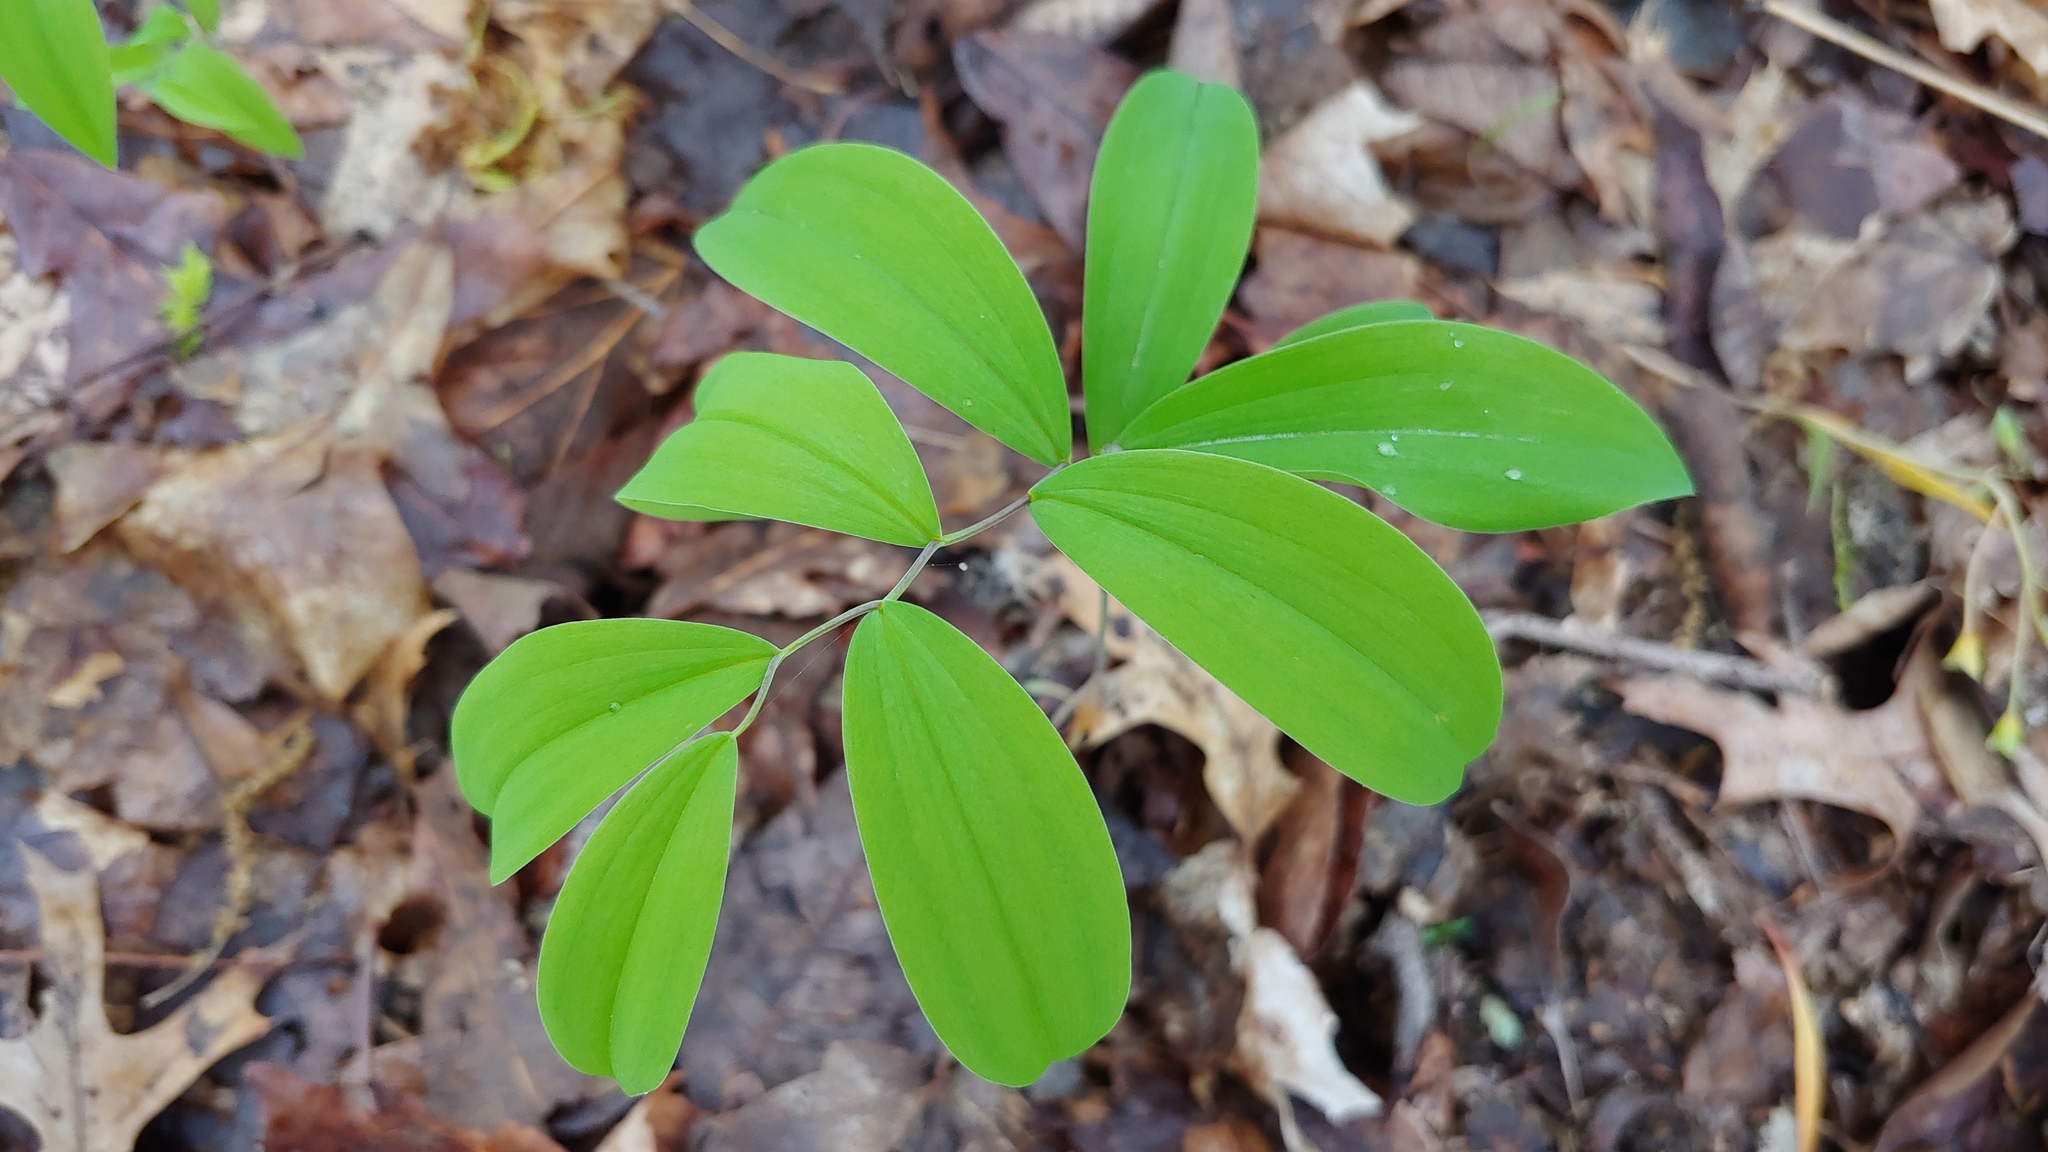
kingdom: Plantae
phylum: Tracheophyta
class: Liliopsida
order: Liliales
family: Colchicaceae
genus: Uvularia
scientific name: Uvularia sessilifolia
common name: Straw-lily
